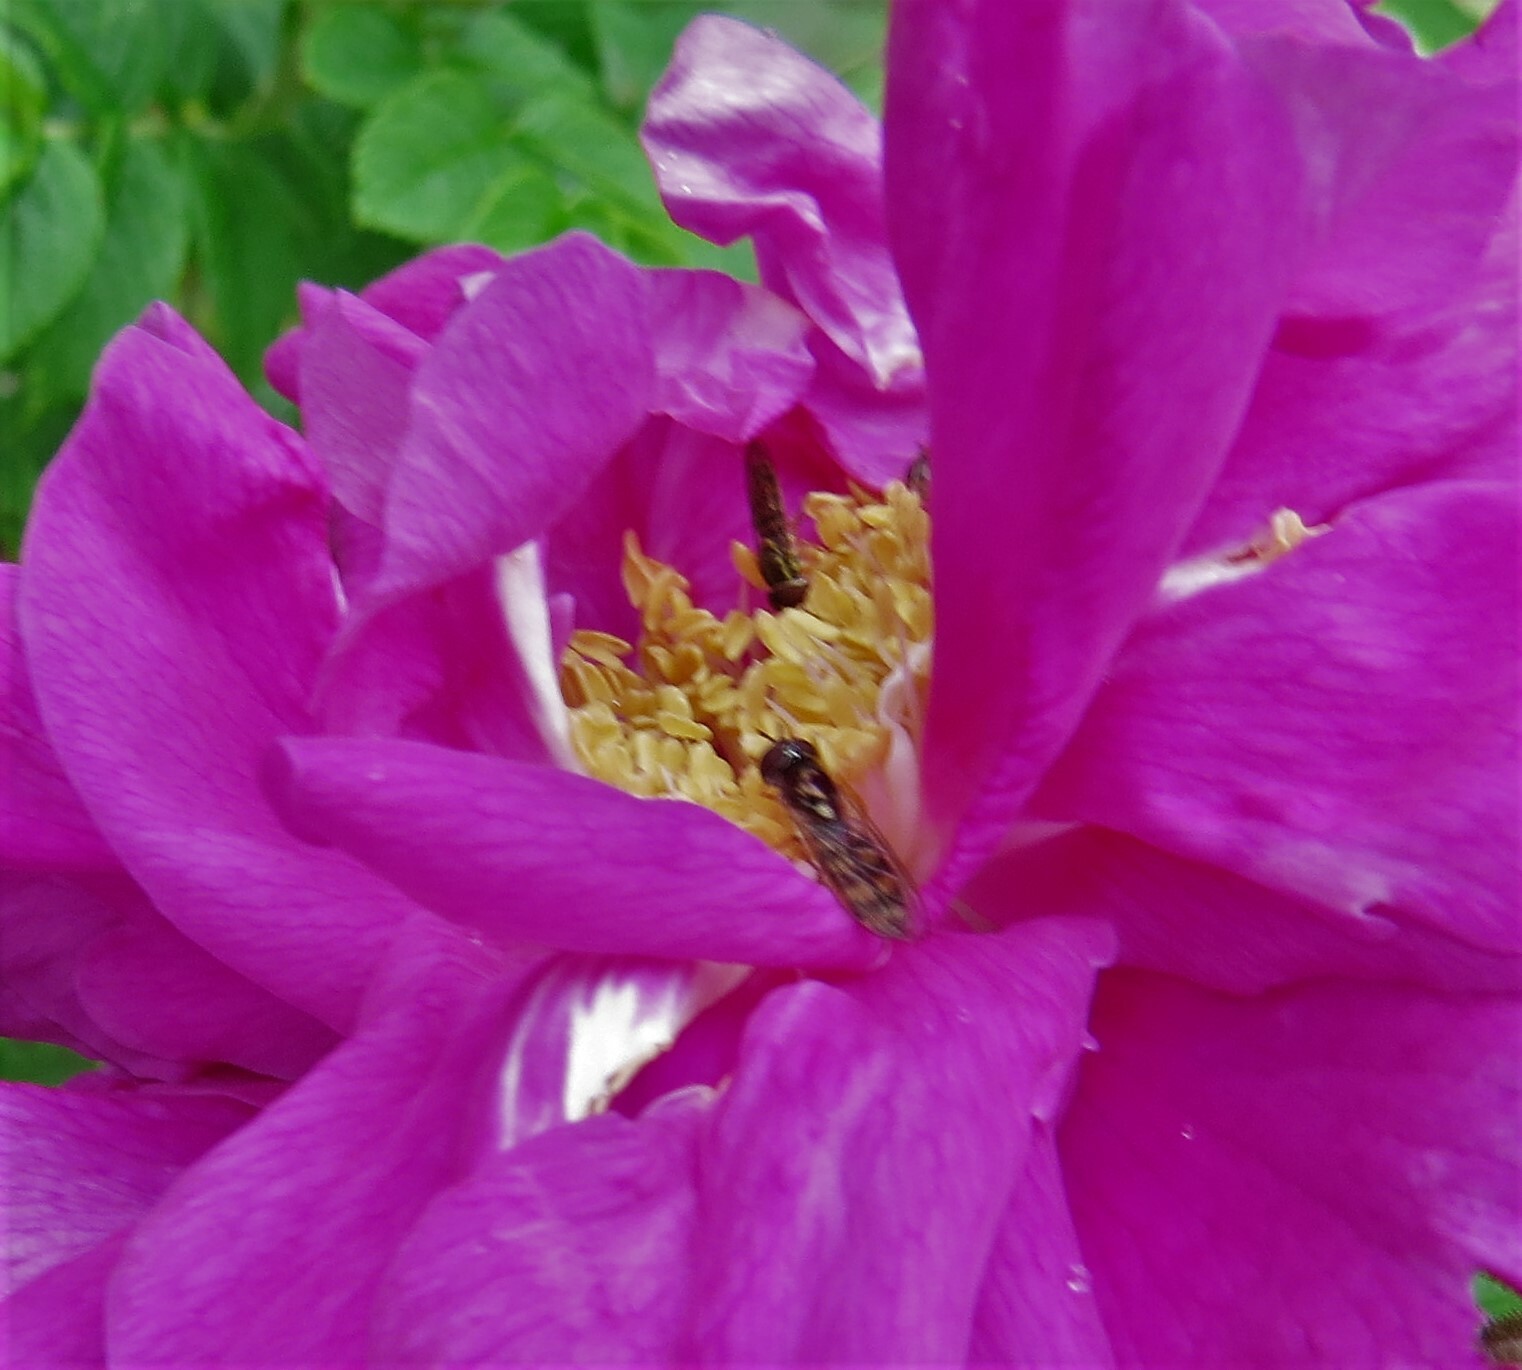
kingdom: Animalia
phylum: Arthropoda
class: Insecta
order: Diptera
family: Syrphidae
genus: Melanostoma
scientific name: Melanostoma mellina
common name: Hover fly
